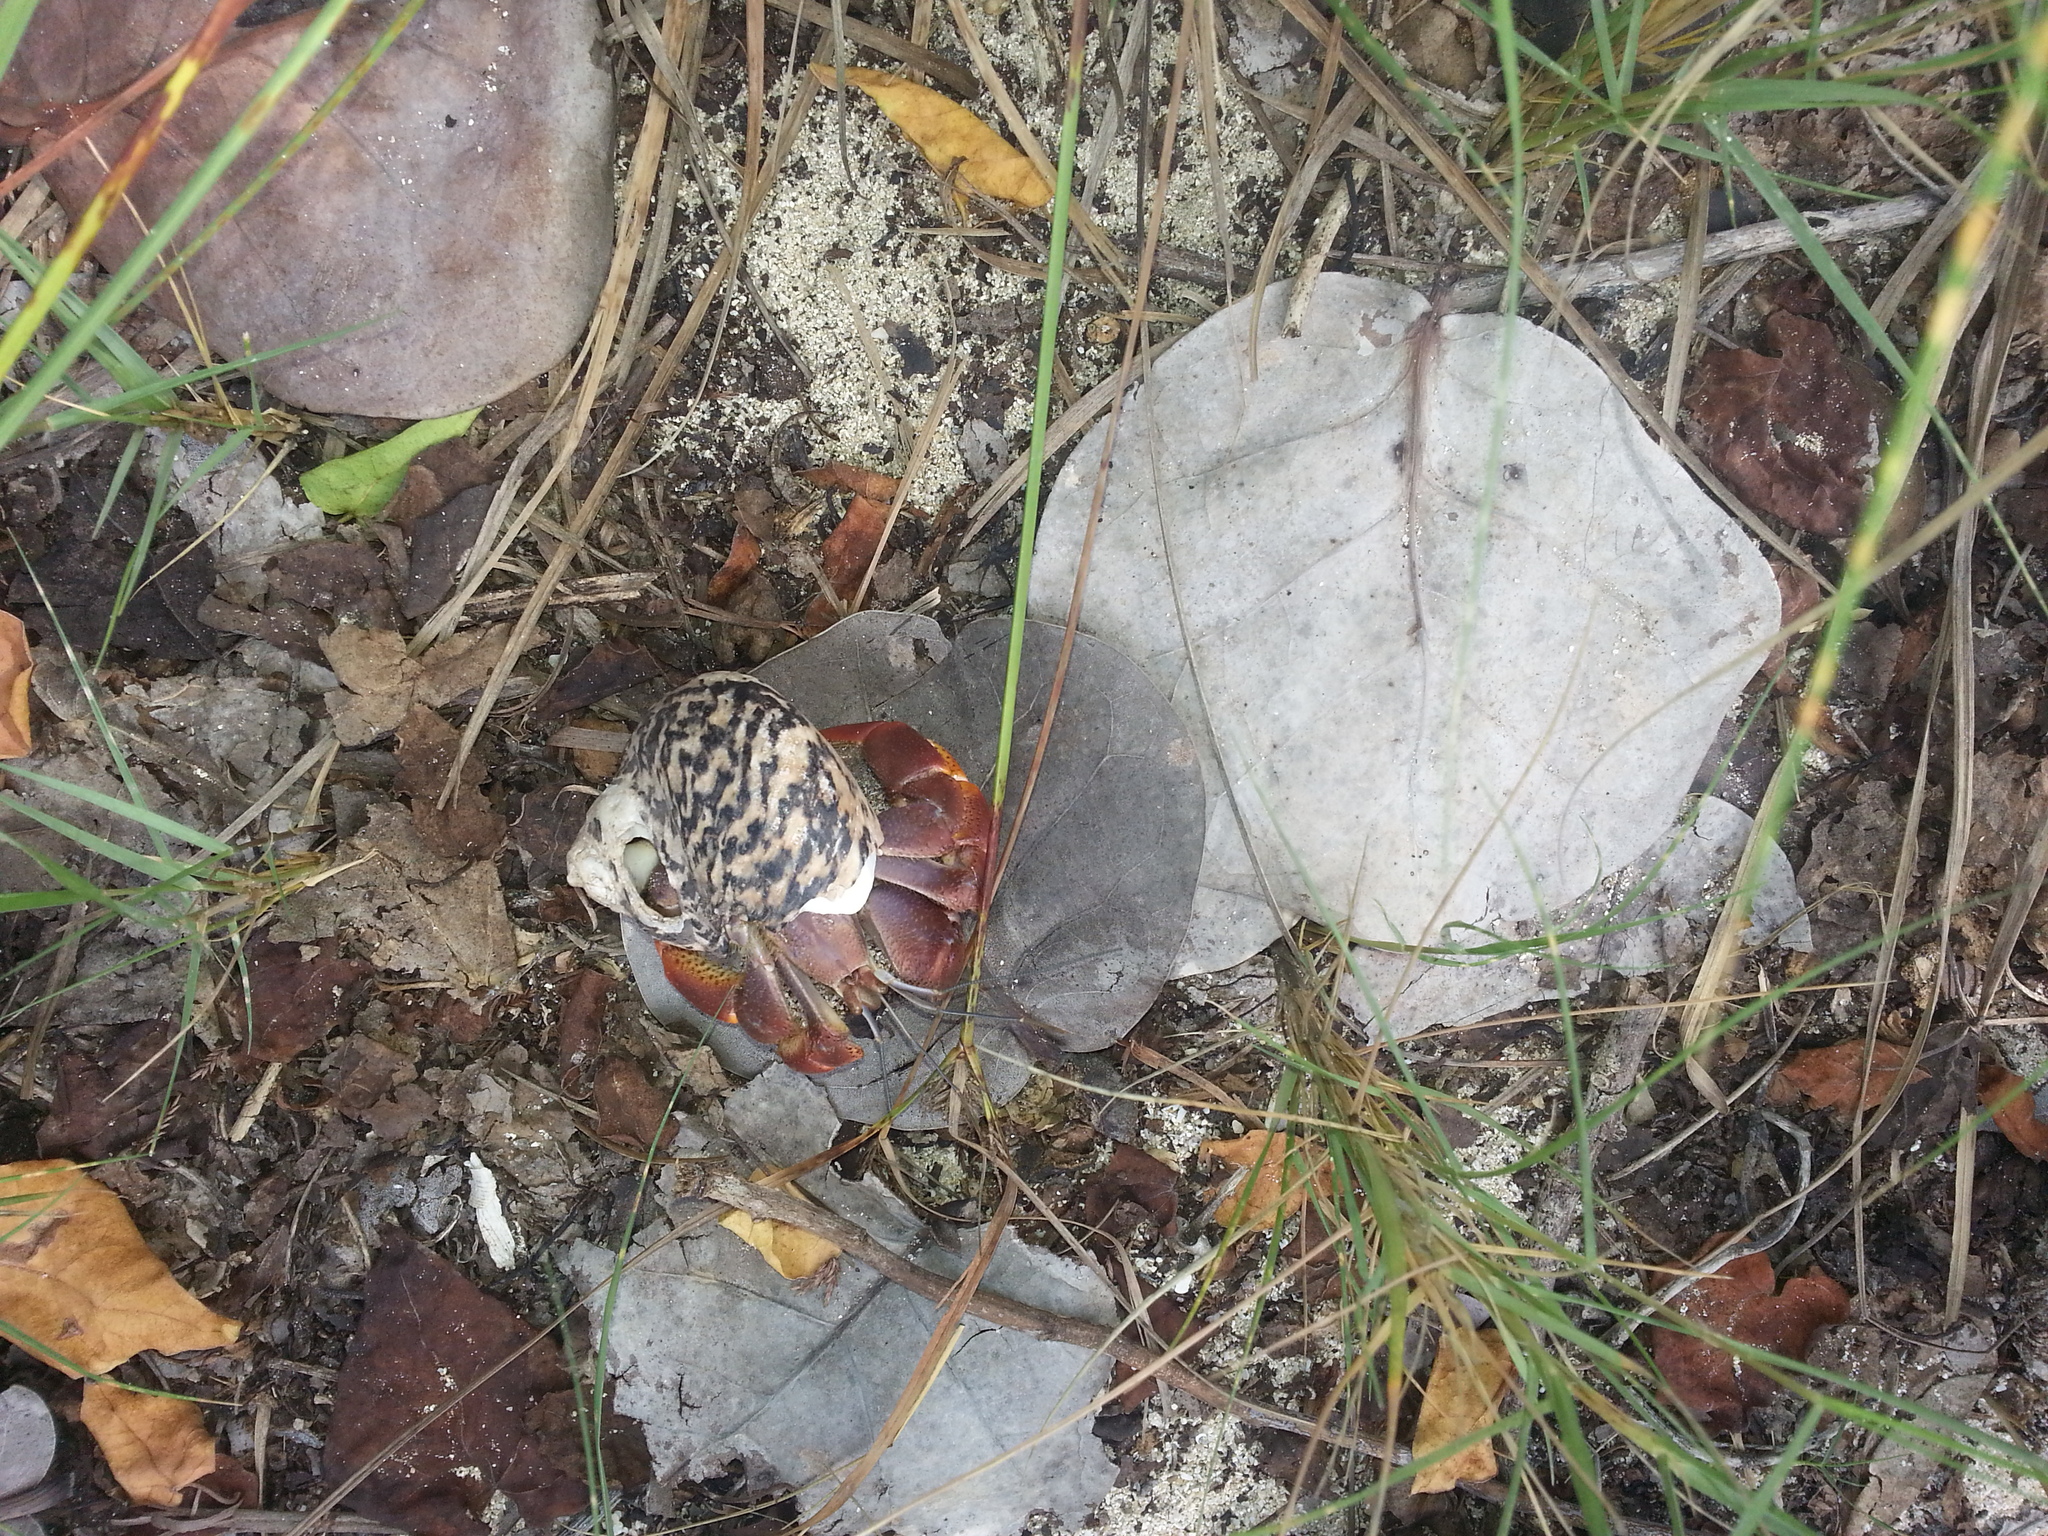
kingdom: Animalia
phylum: Arthropoda
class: Malacostraca
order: Decapoda
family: Coenobitidae
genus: Coenobita
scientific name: Coenobita clypeatus
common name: Caribbean hermit crab
